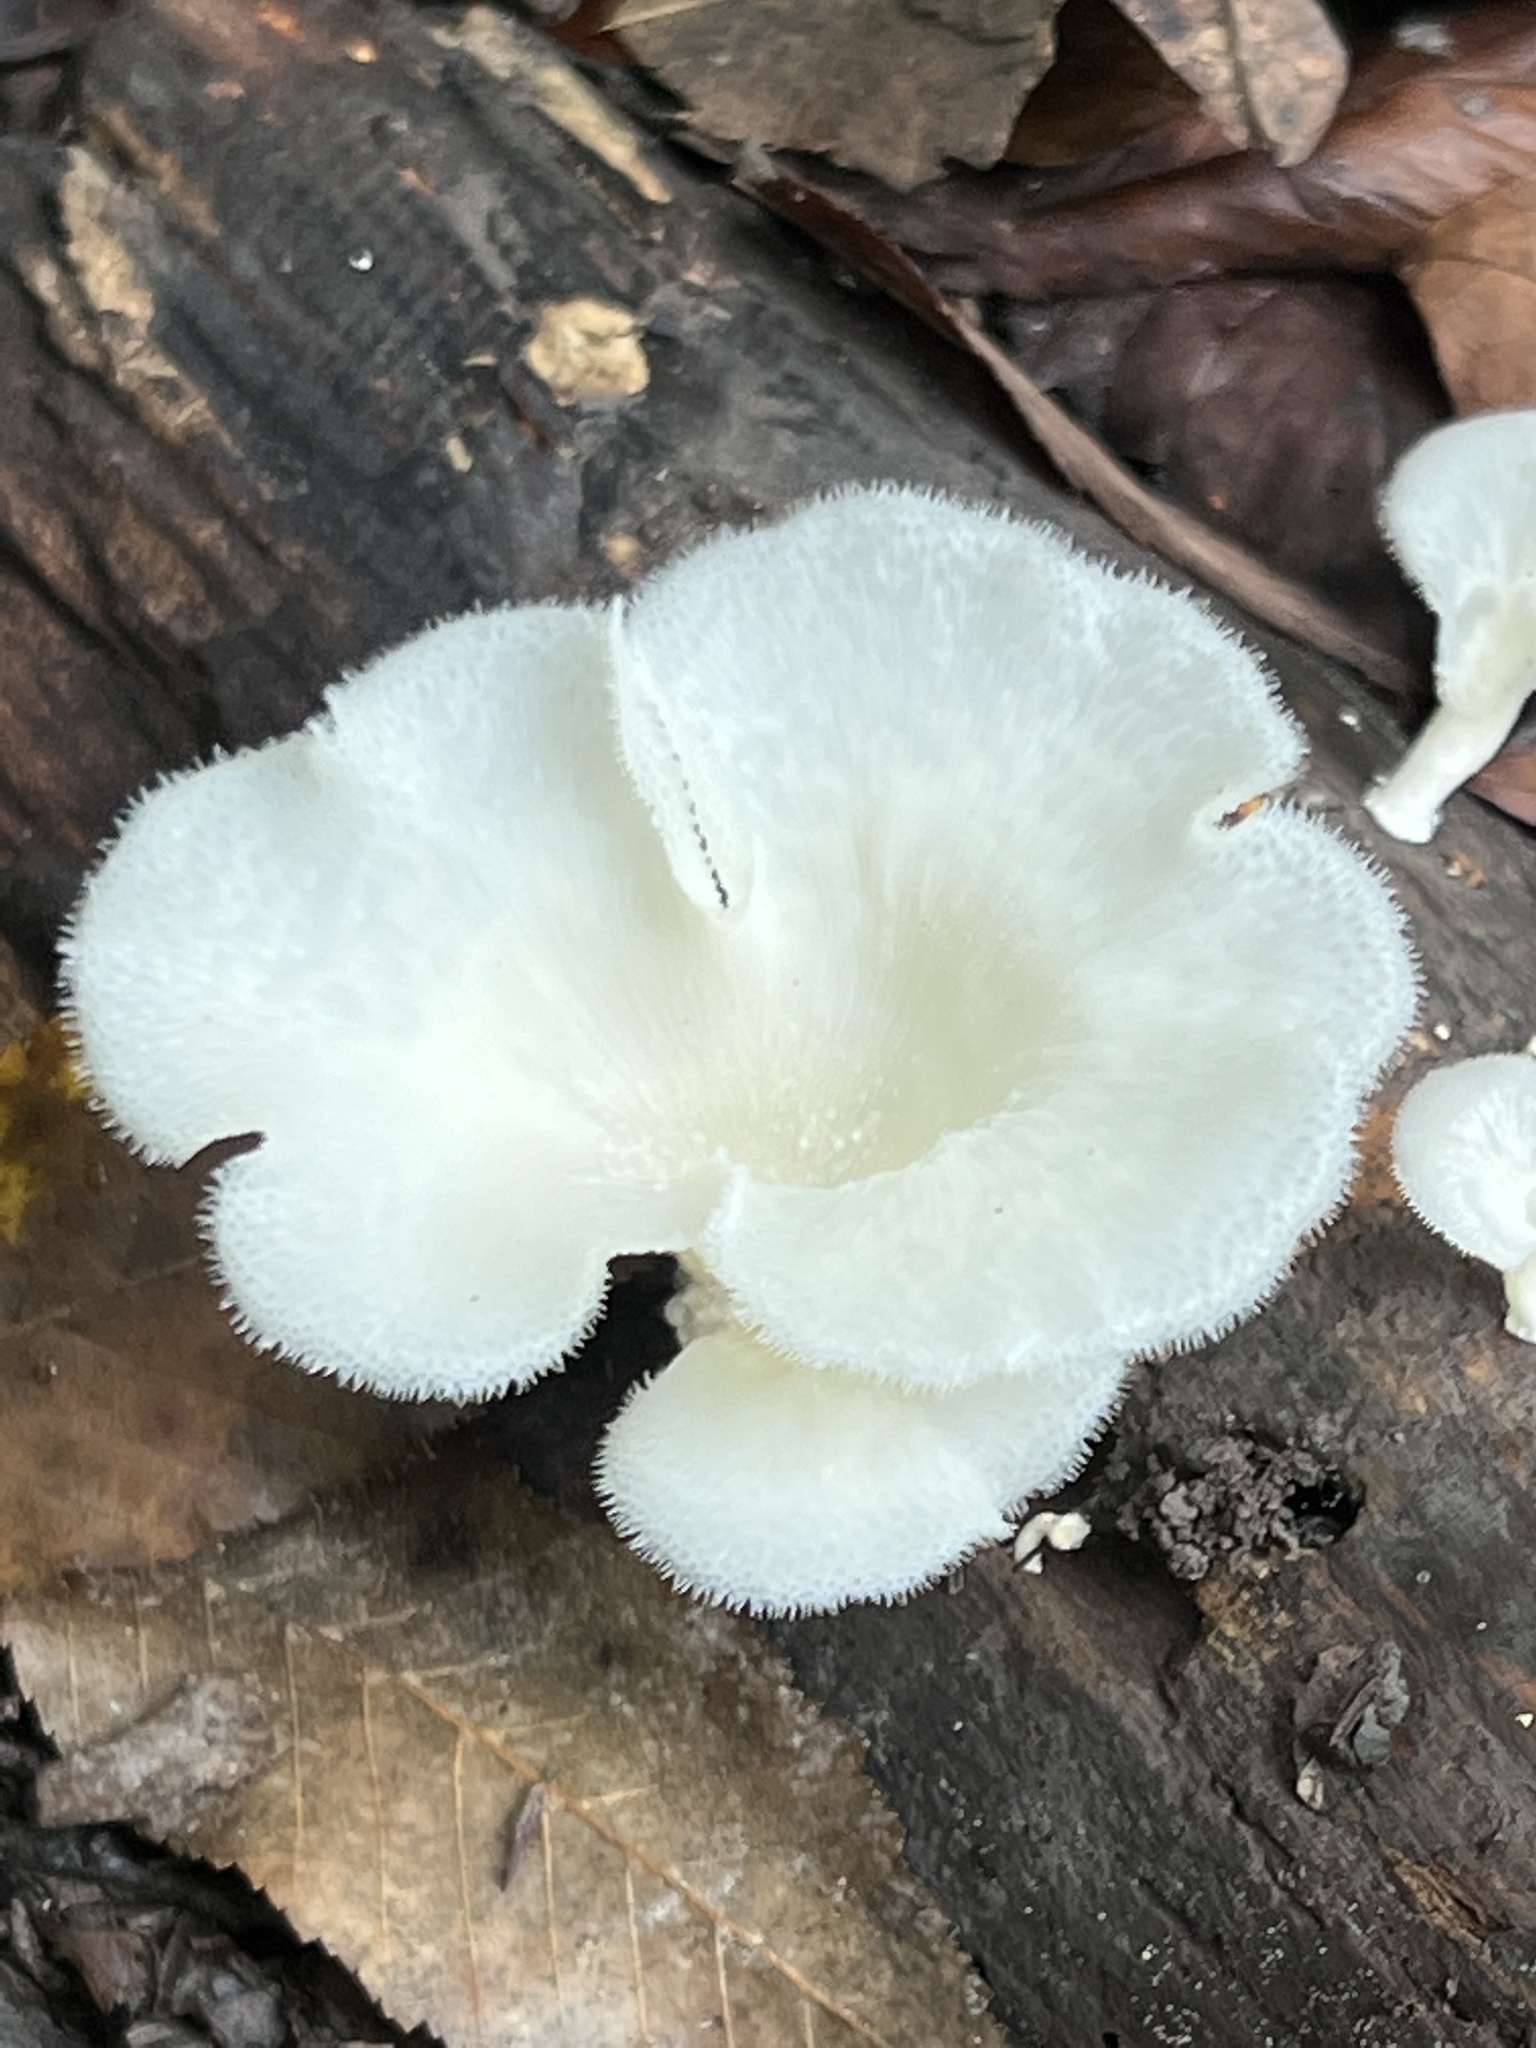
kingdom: Fungi
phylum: Basidiomycota
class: Agaricomycetes
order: Polyporales
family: Polyporaceae
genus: Favolus
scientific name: Favolus tenuiculus
